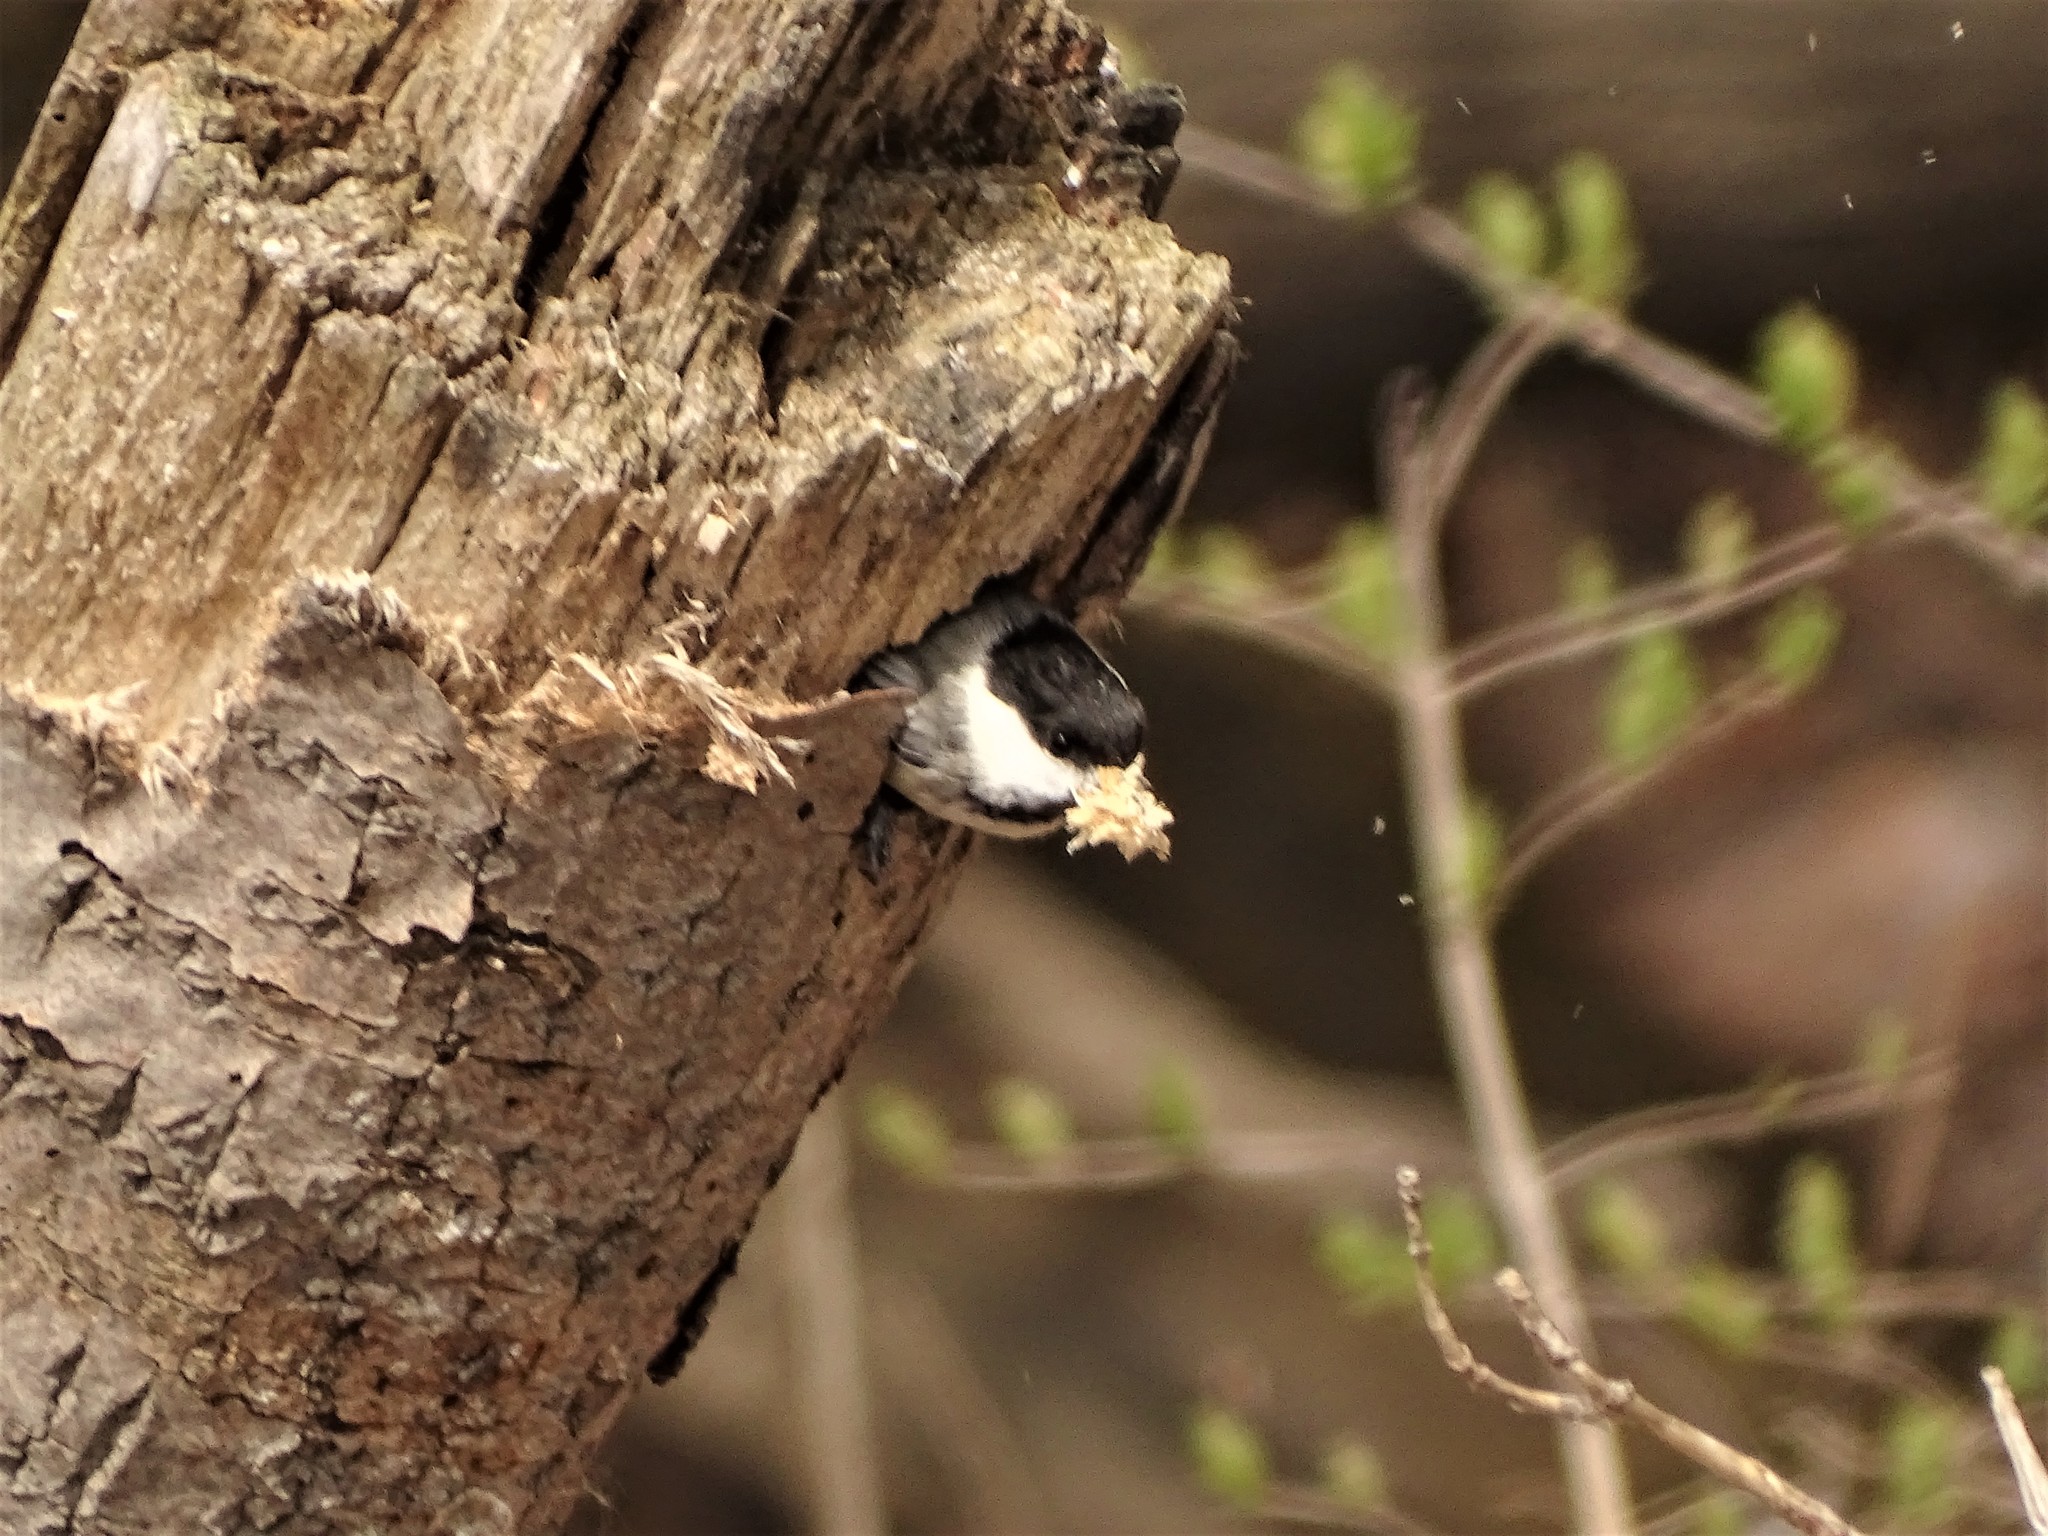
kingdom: Animalia
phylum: Chordata
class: Aves
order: Passeriformes
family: Paridae
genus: Poecile
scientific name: Poecile atricapillus
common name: Black-capped chickadee
